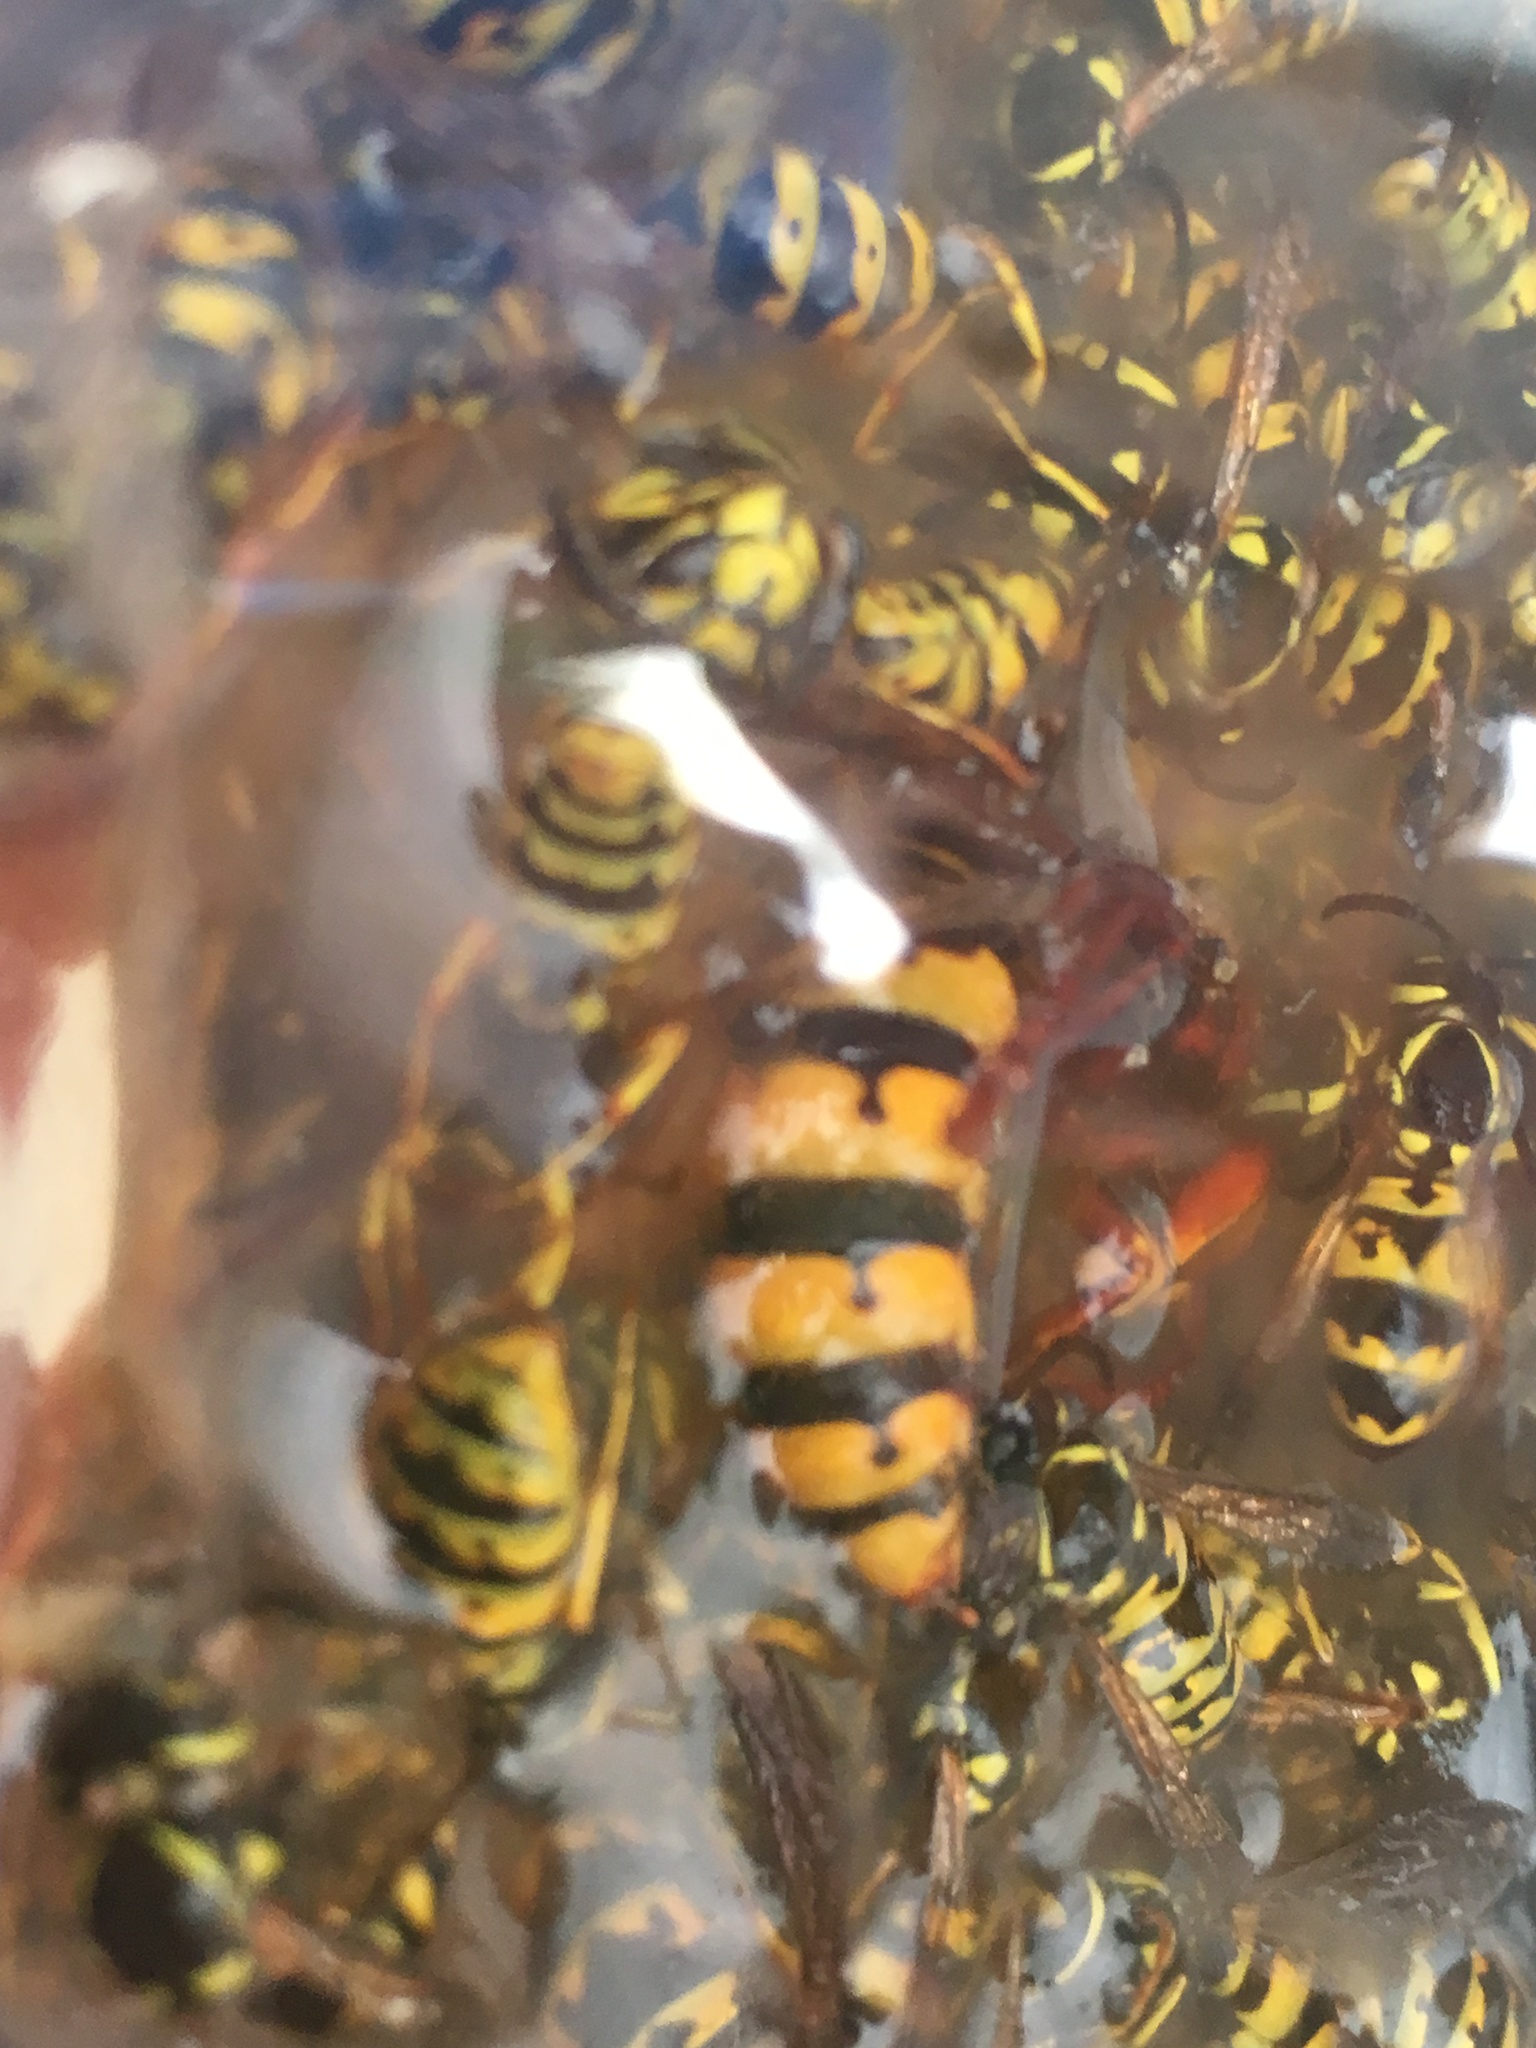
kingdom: Animalia
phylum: Arthropoda
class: Insecta
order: Hymenoptera
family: Vespidae
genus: Vespa
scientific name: Vespa crabro
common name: Hornet
